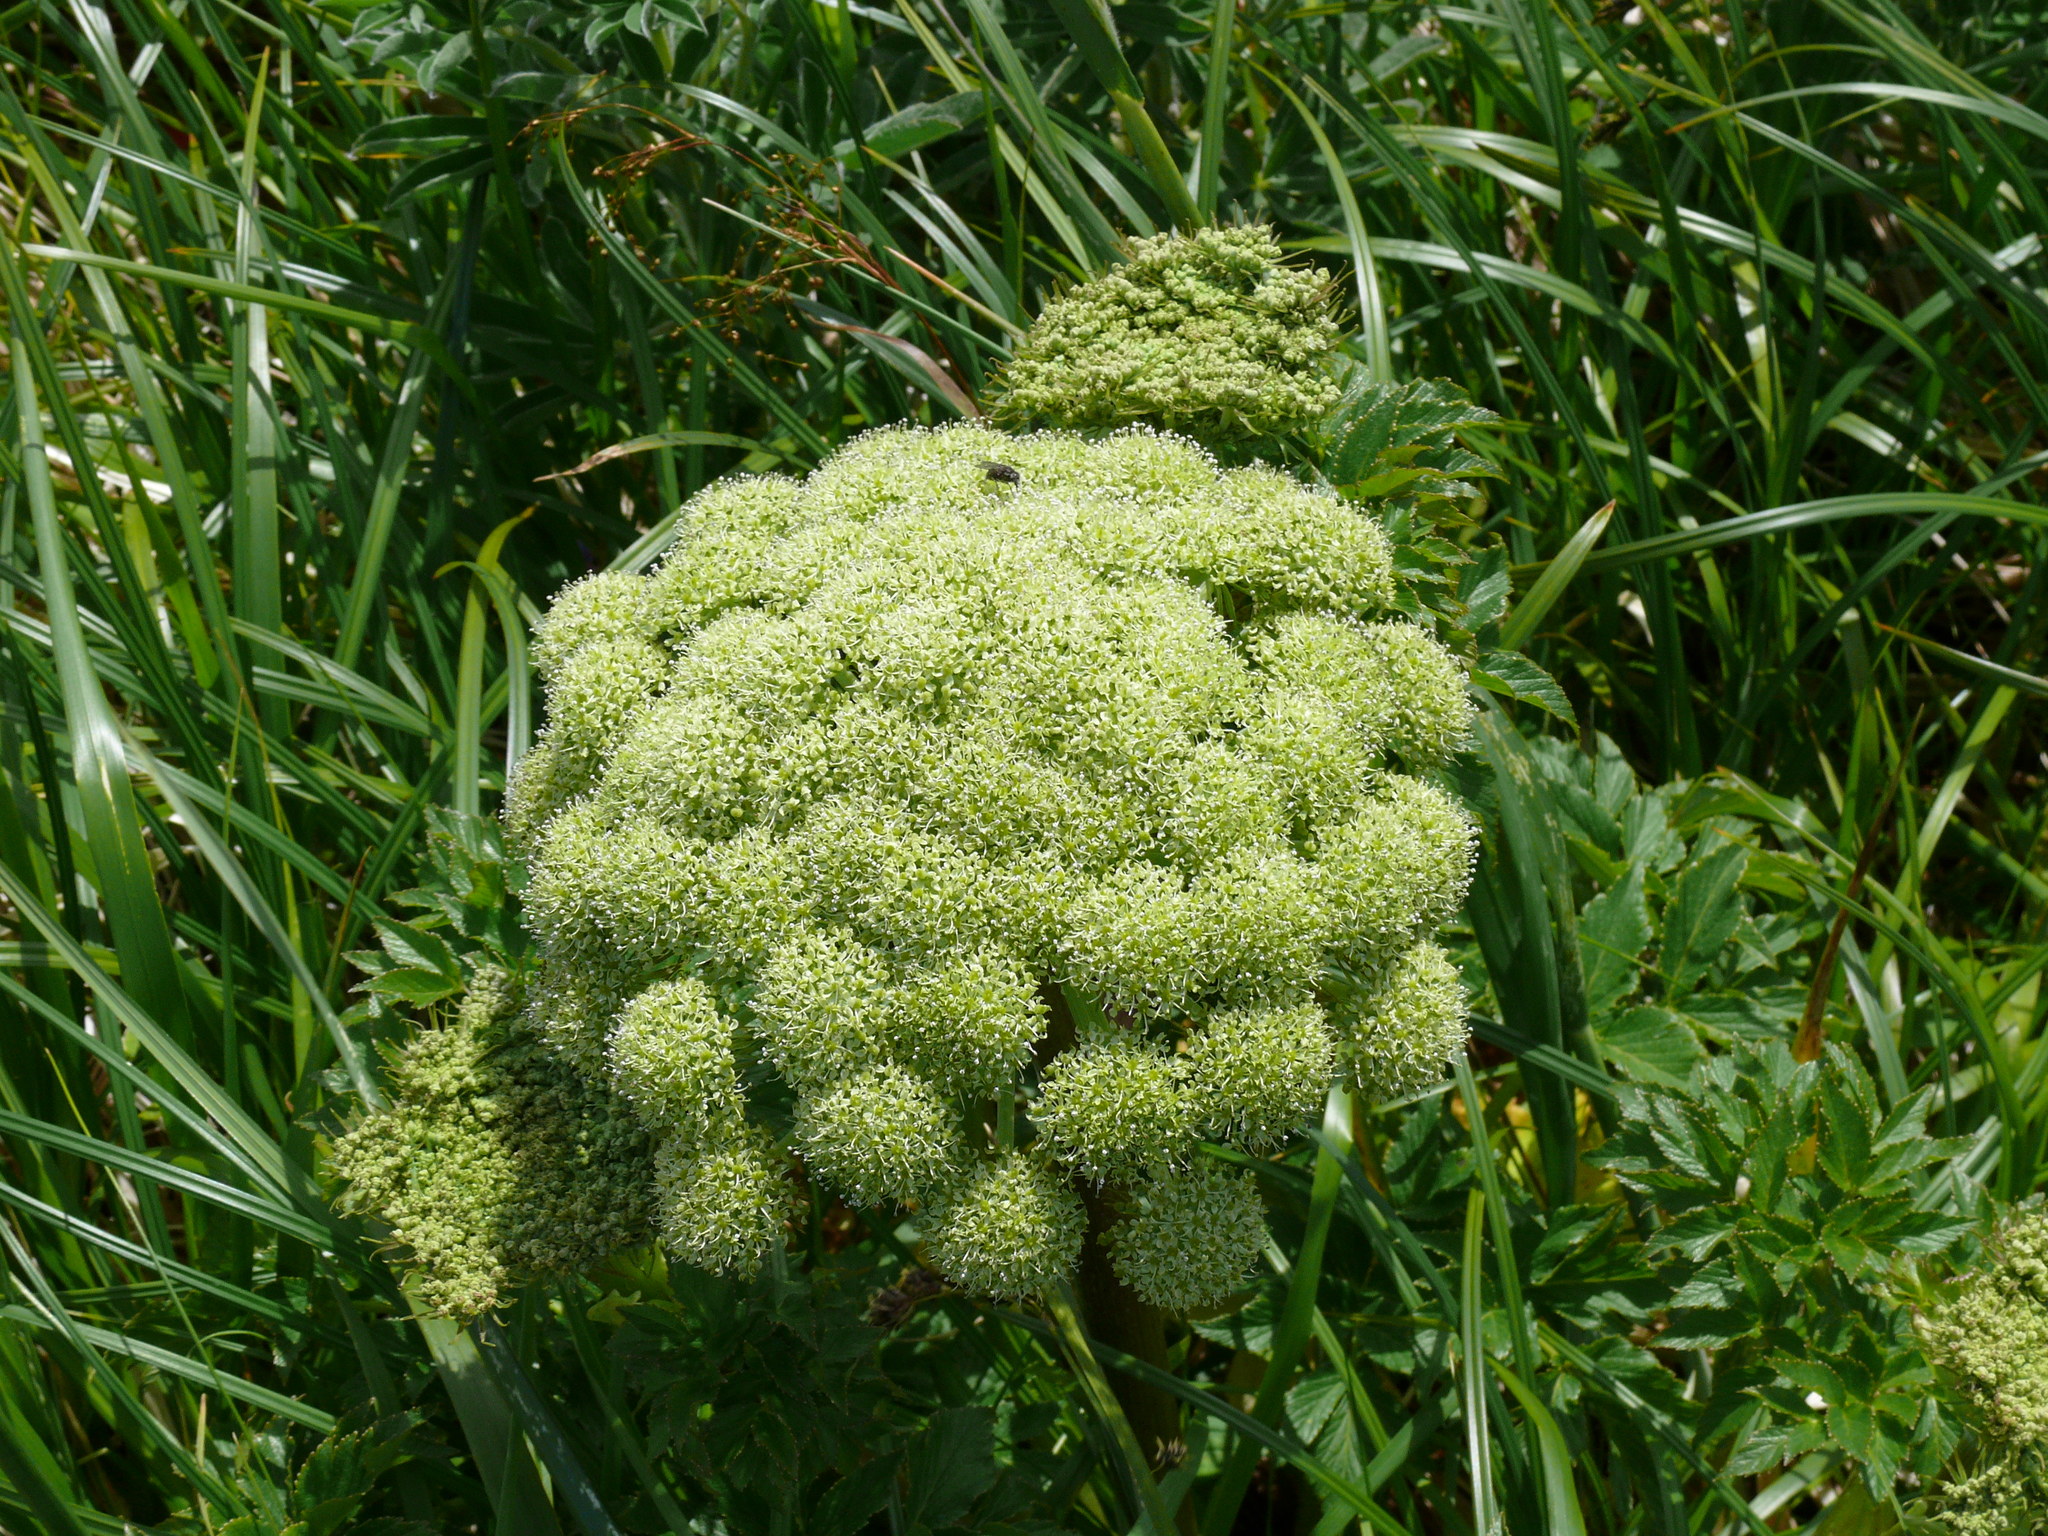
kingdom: Plantae
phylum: Tracheophyta
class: Magnoliopsida
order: Apiales
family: Apiaceae
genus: Angelica
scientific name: Angelica lucida
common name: Seabeach angelica
